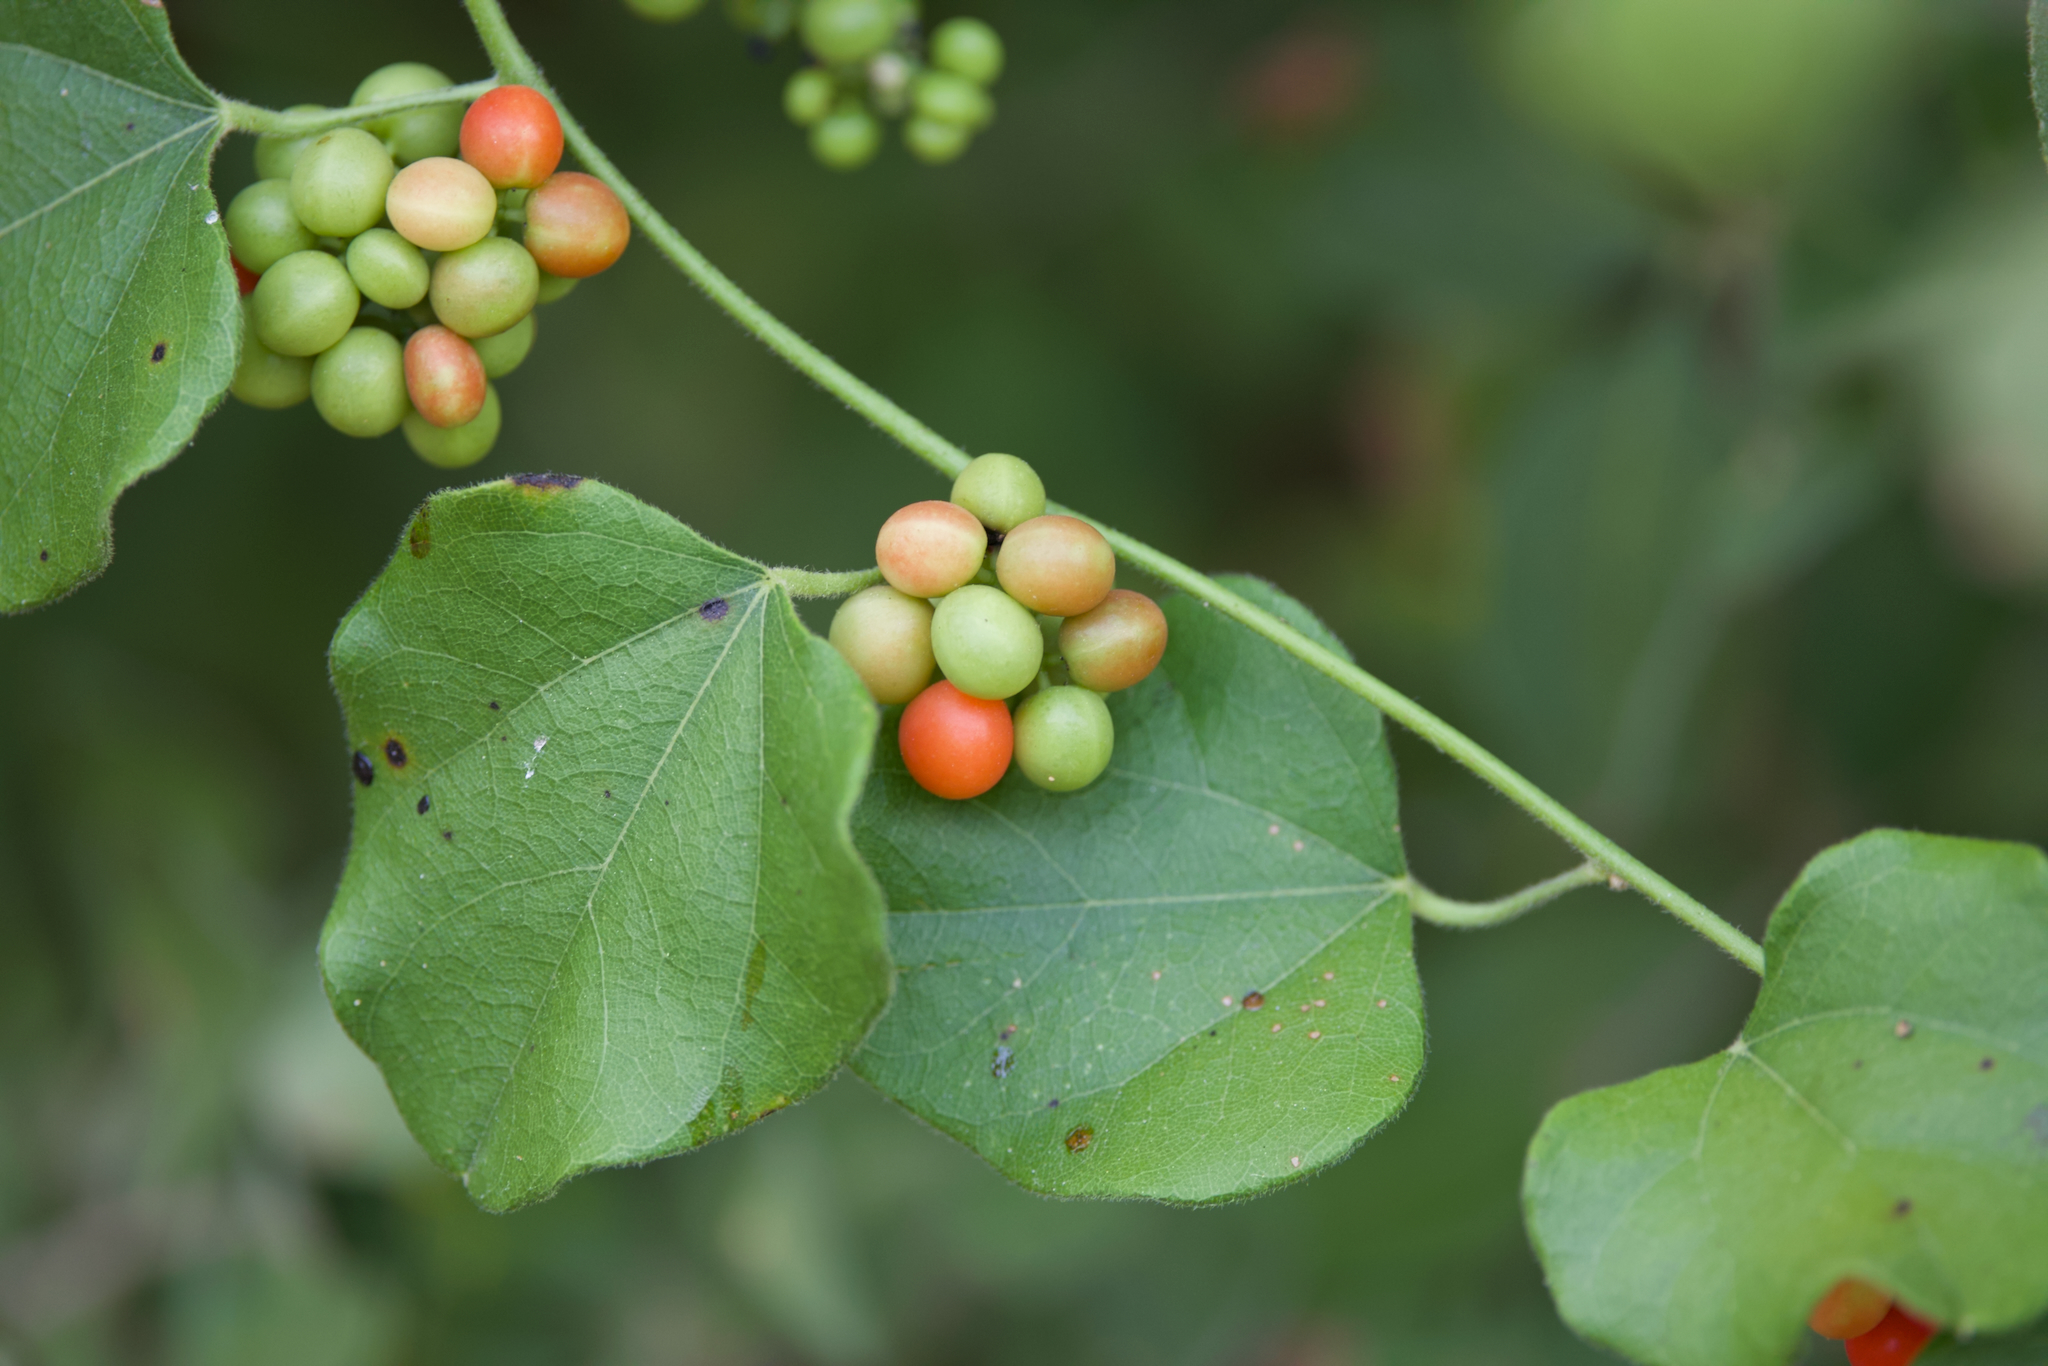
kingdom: Plantae
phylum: Tracheophyta
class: Magnoliopsida
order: Ranunculales
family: Menispermaceae
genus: Cocculus
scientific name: Cocculus carolinus
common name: Carolina moonseed
